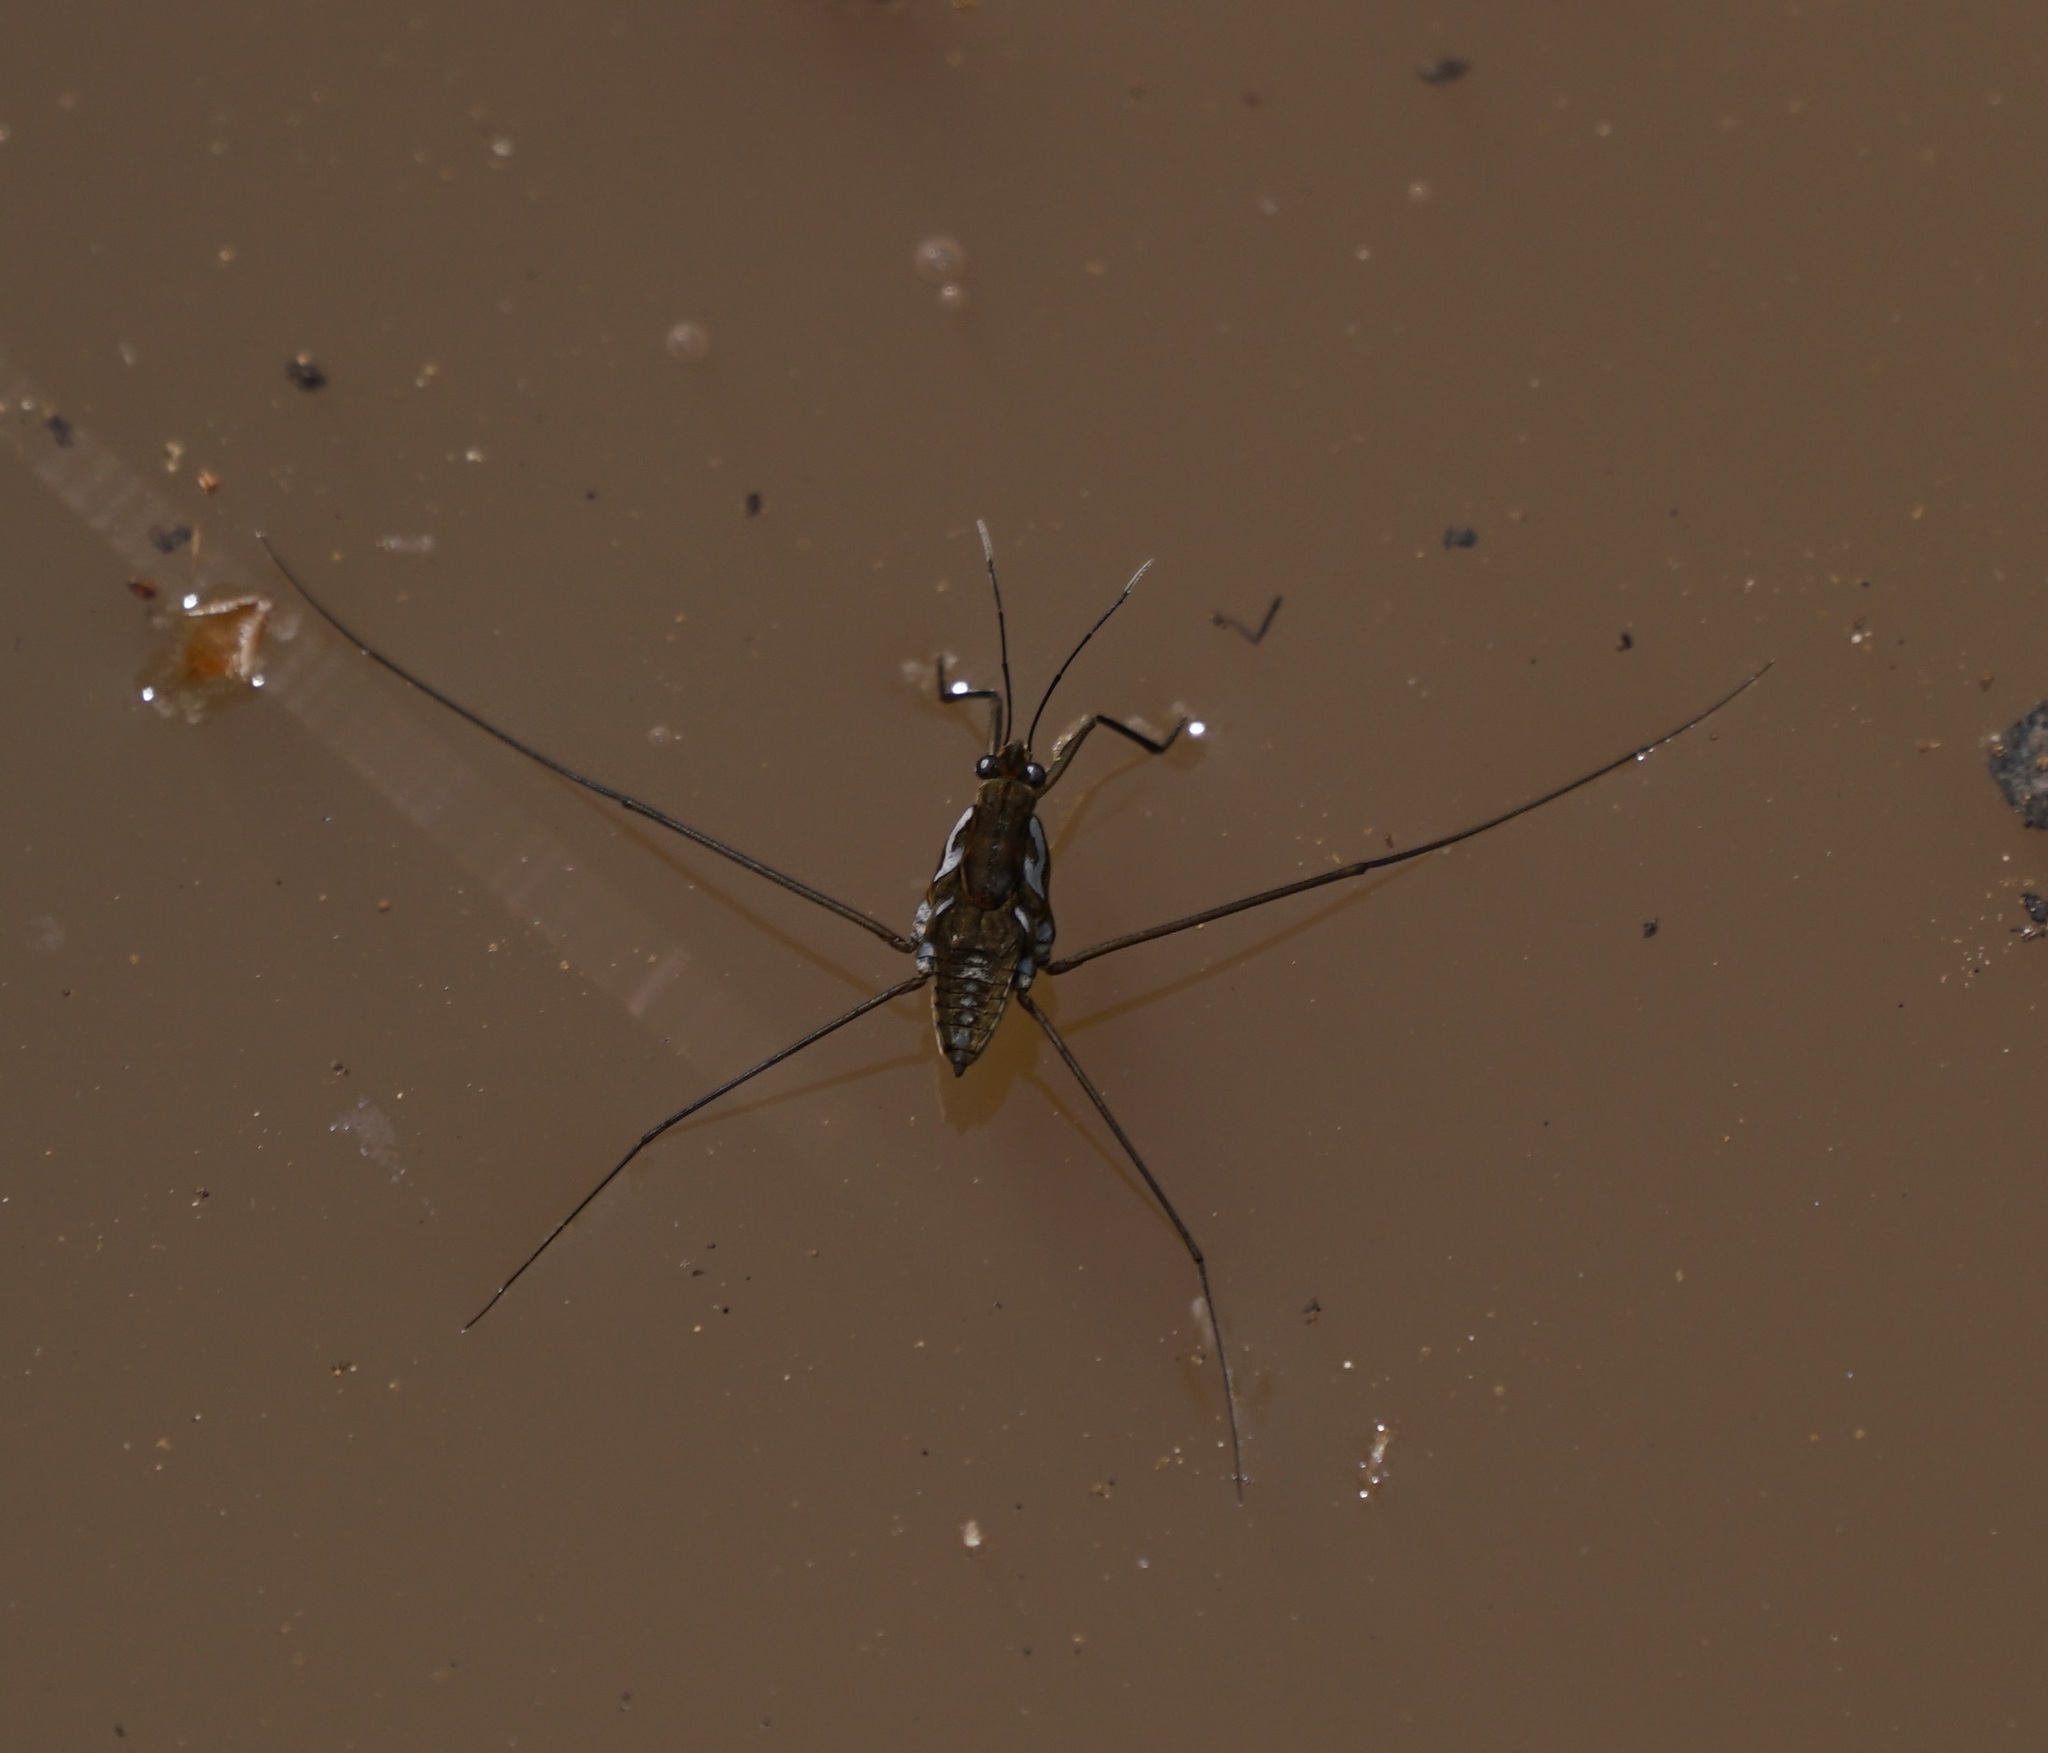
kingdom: Animalia
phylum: Arthropoda
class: Insecta
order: Hemiptera
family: Gerridae
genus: Tenagogerris
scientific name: Tenagogerris euphrosyne
